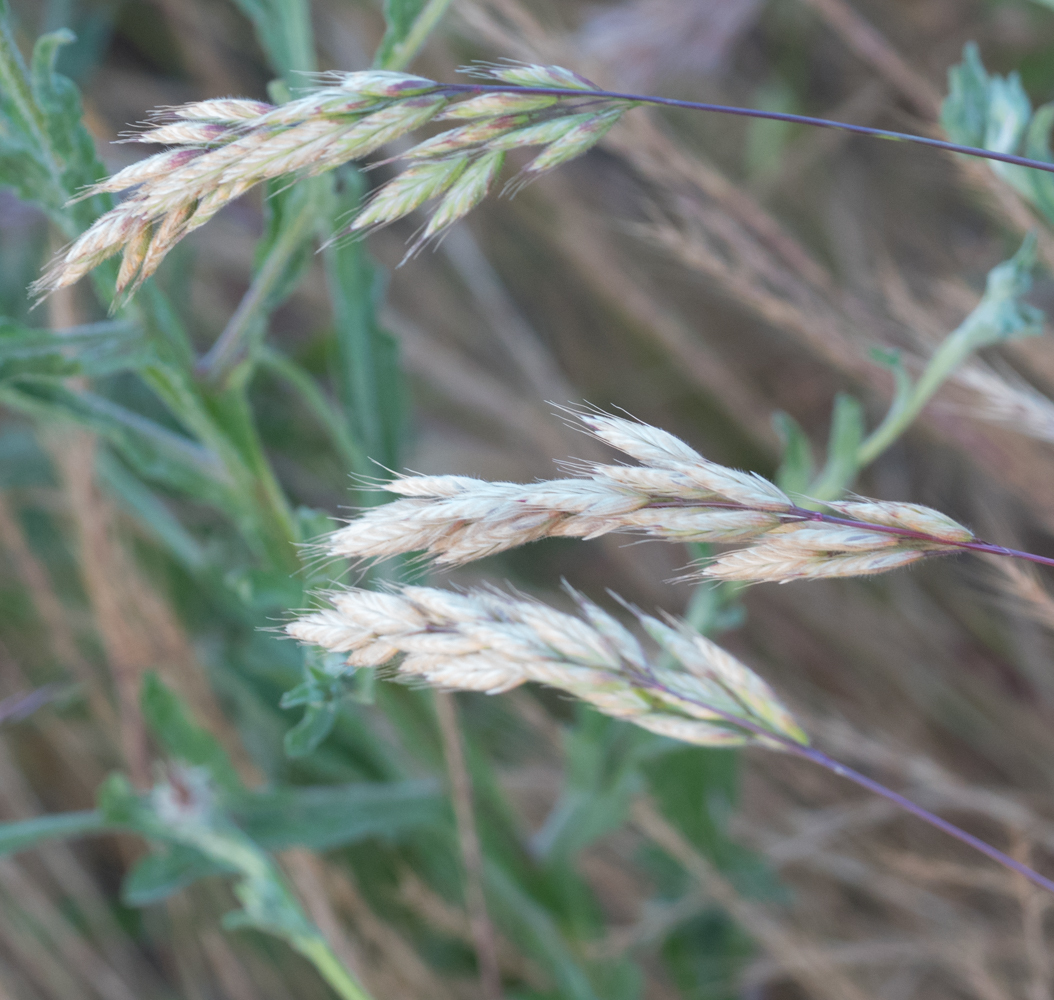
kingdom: Plantae
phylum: Tracheophyta
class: Liliopsida
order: Poales
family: Poaceae
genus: Bromus
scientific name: Bromus hordeaceus
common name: Soft brome
